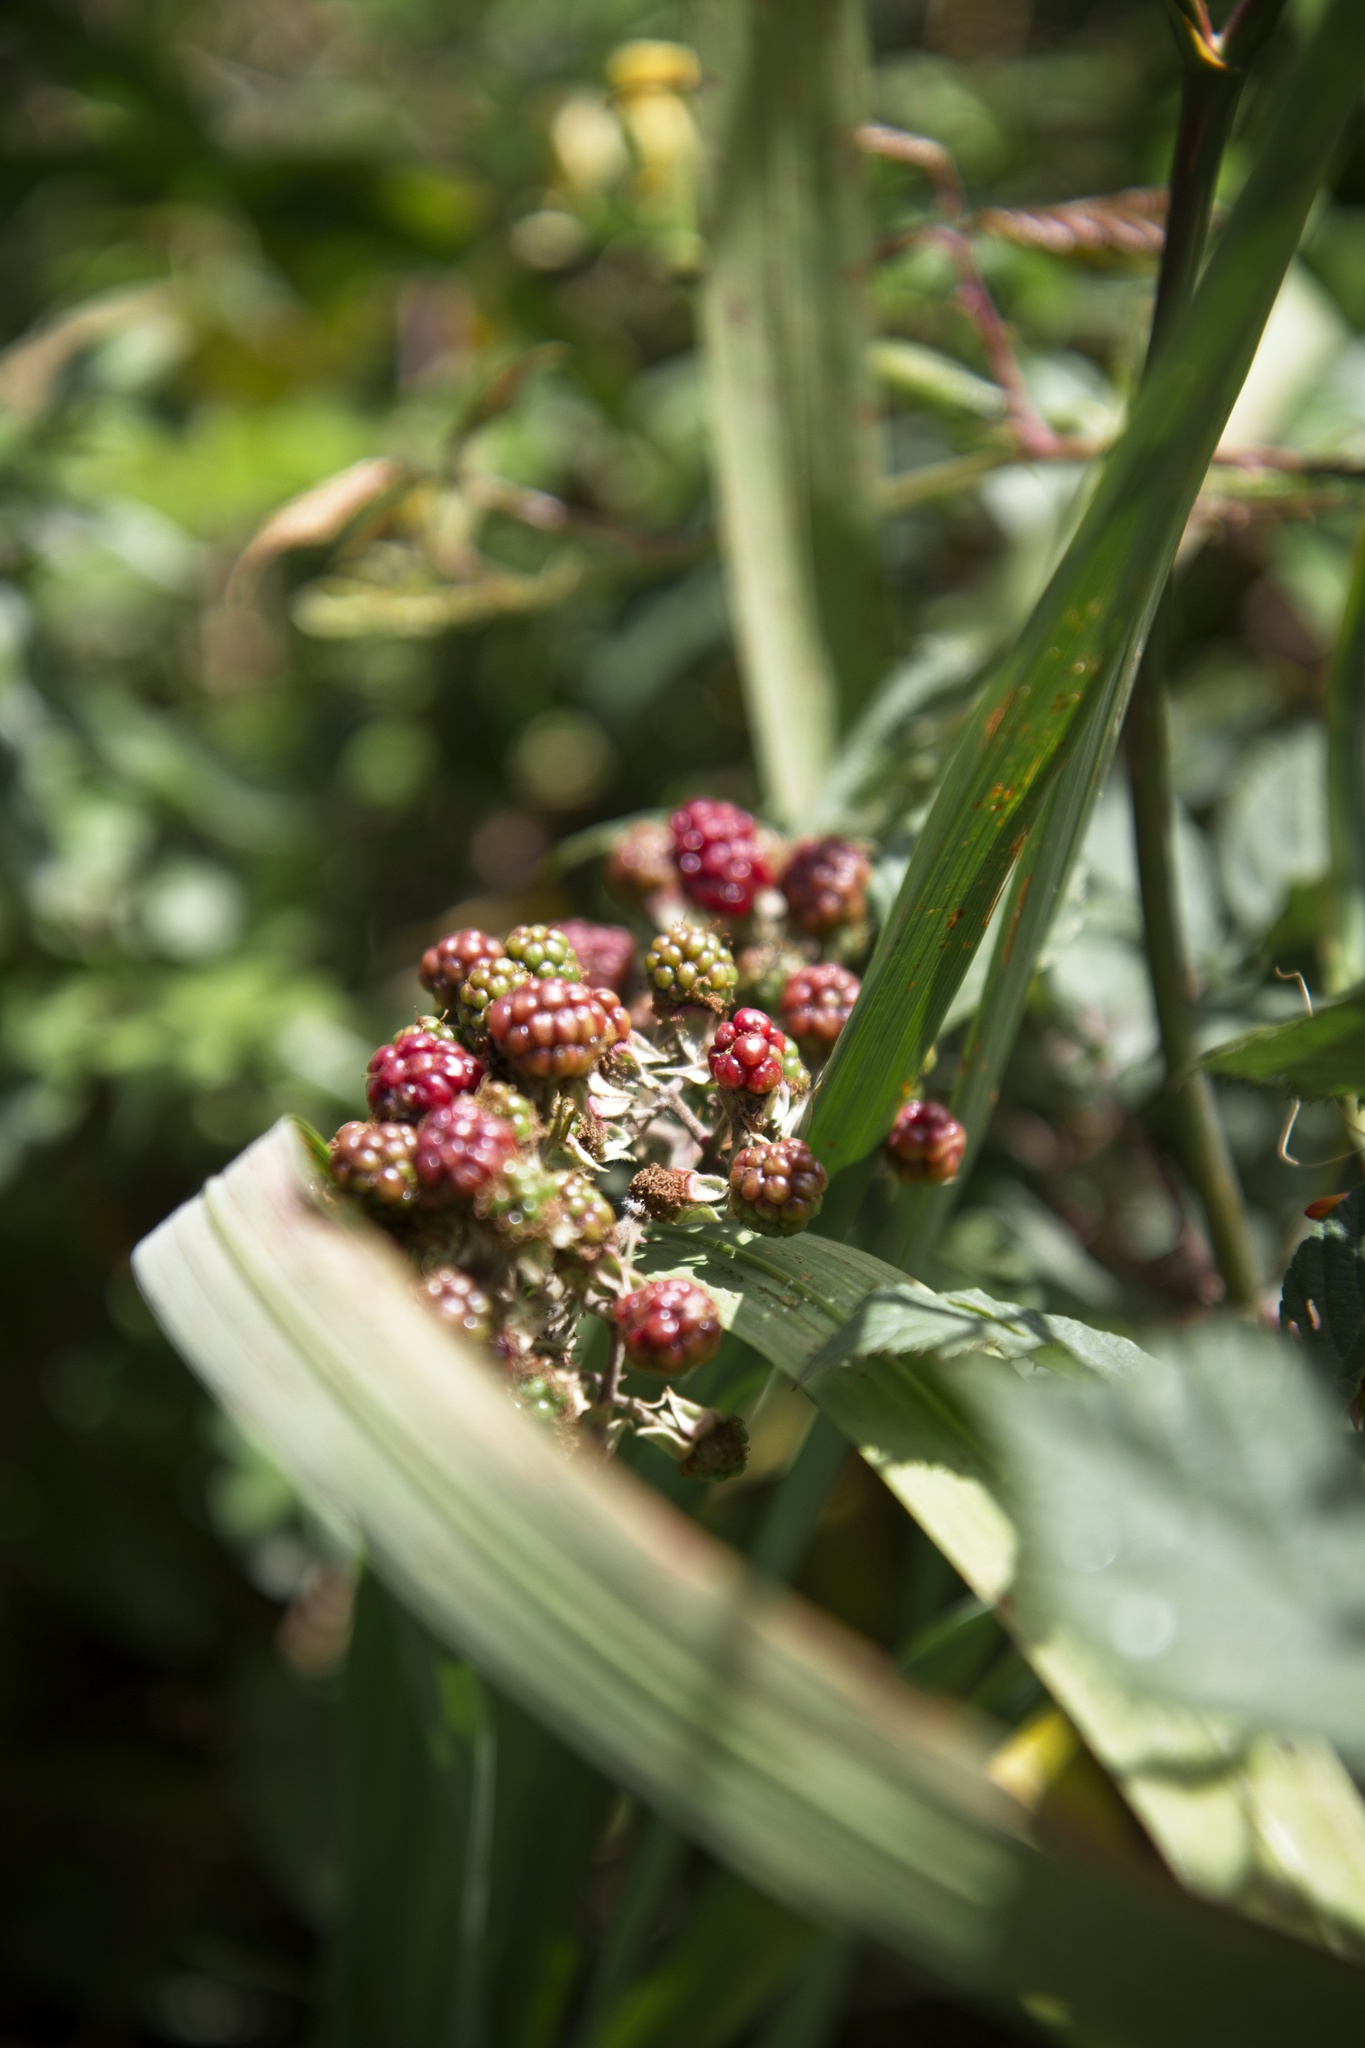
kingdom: Plantae
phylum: Tracheophyta
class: Magnoliopsida
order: Rosales
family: Rosaceae
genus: Rubus
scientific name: Rubus
